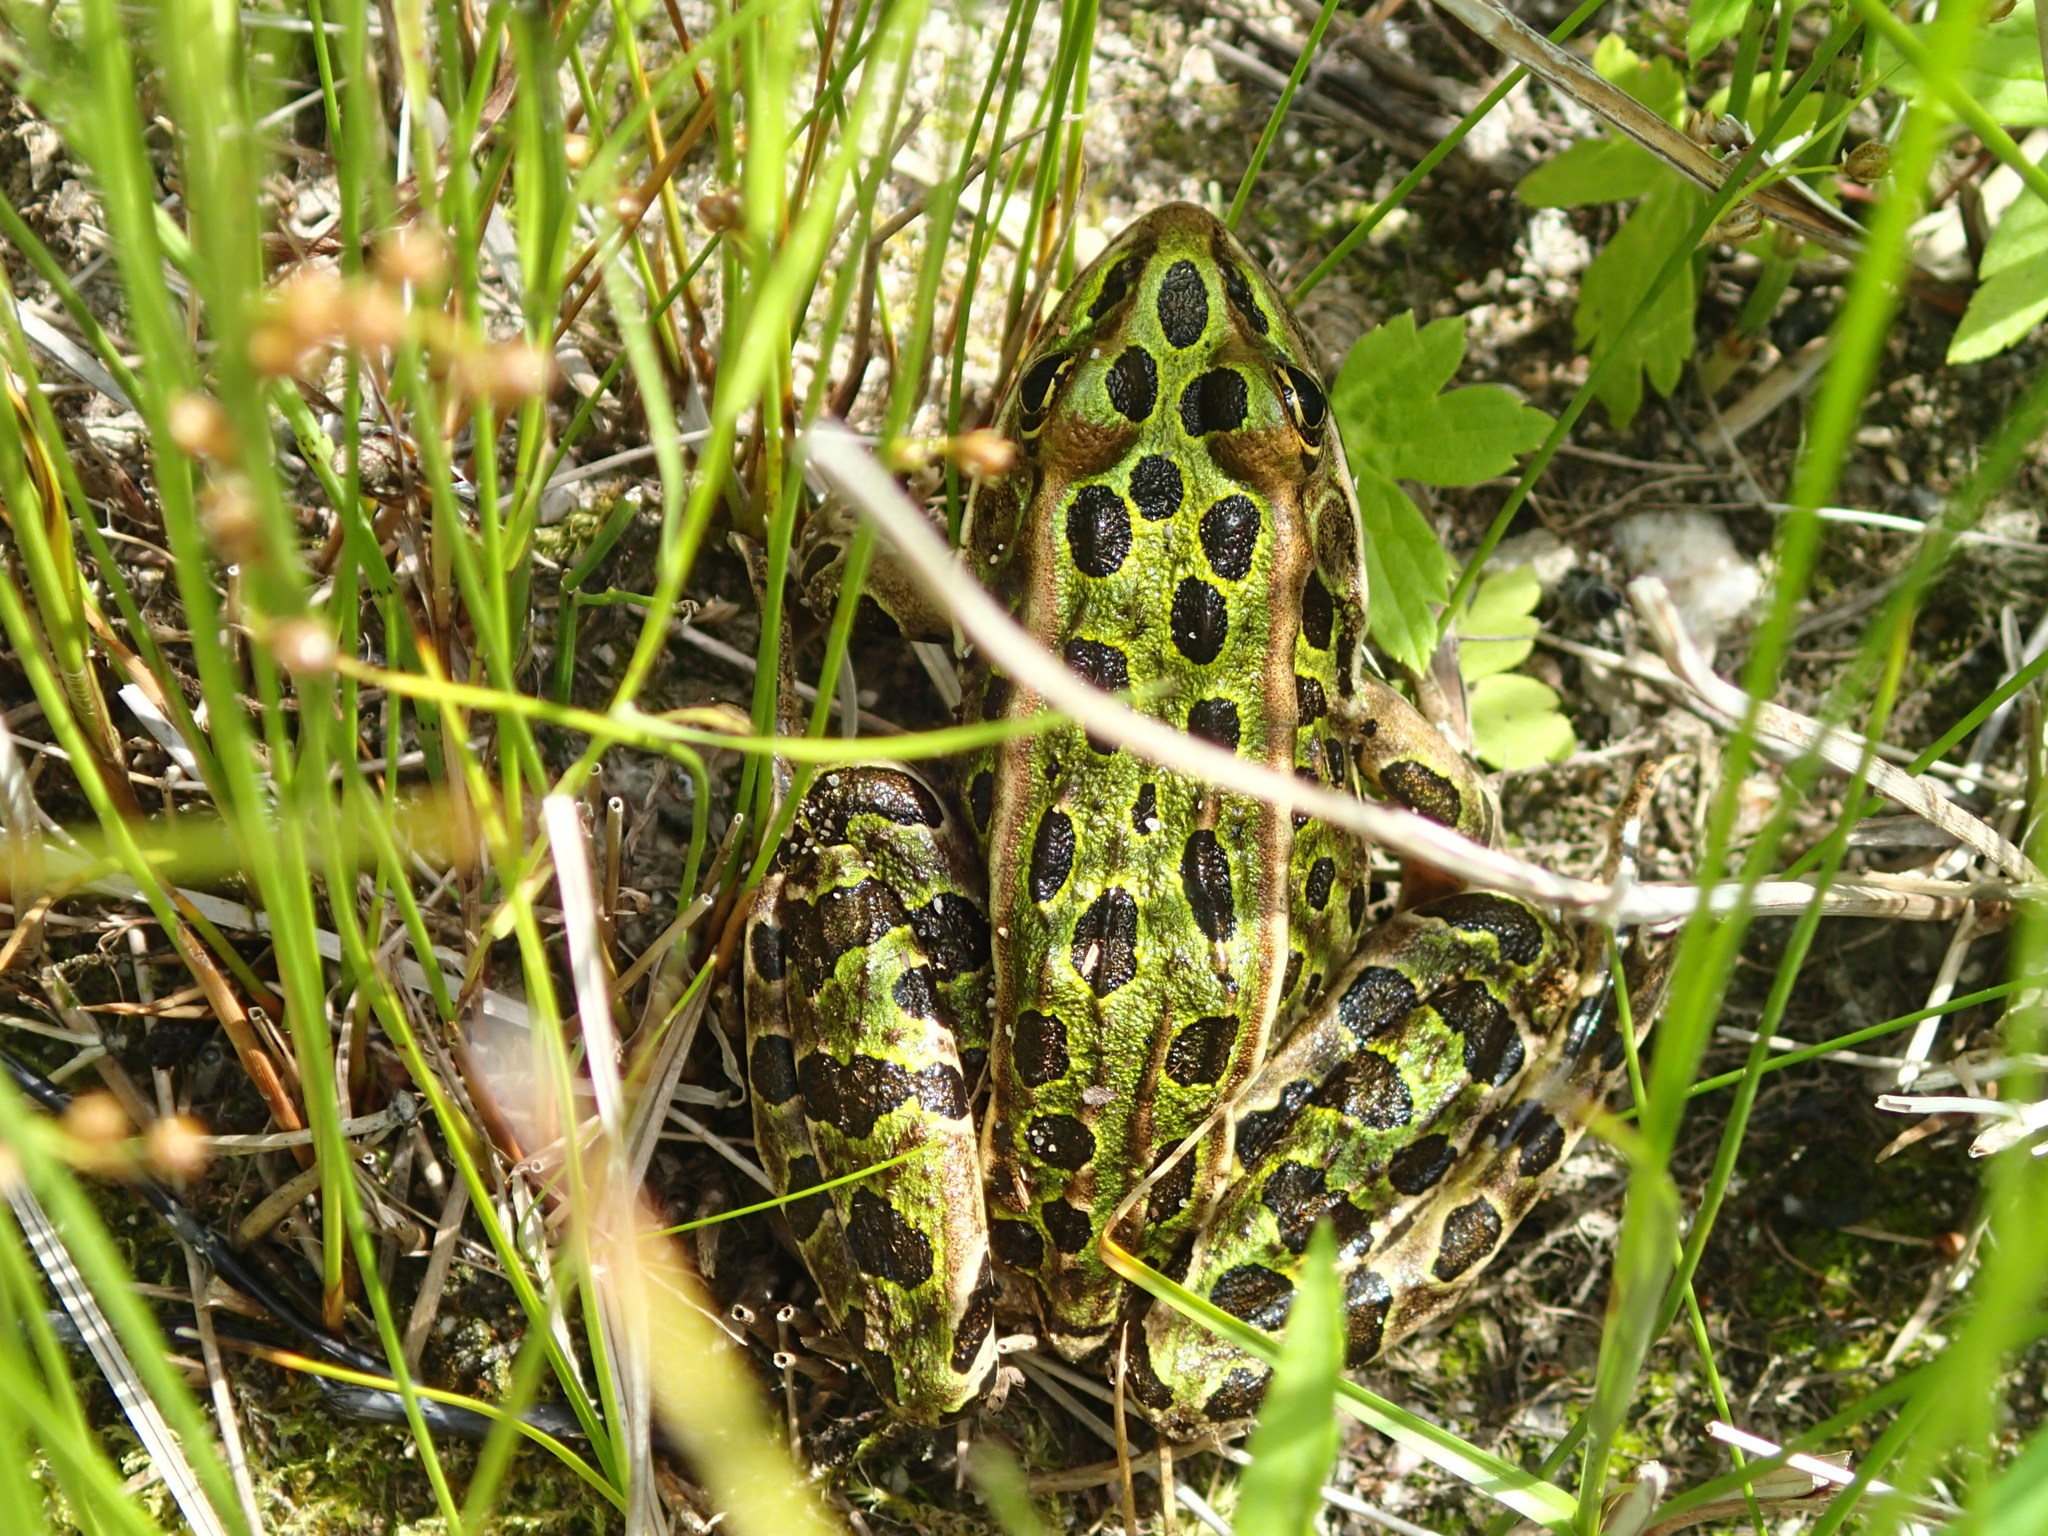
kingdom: Animalia
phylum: Chordata
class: Amphibia
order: Anura
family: Ranidae
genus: Lithobates
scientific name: Lithobates pipiens
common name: Northern leopard frog
